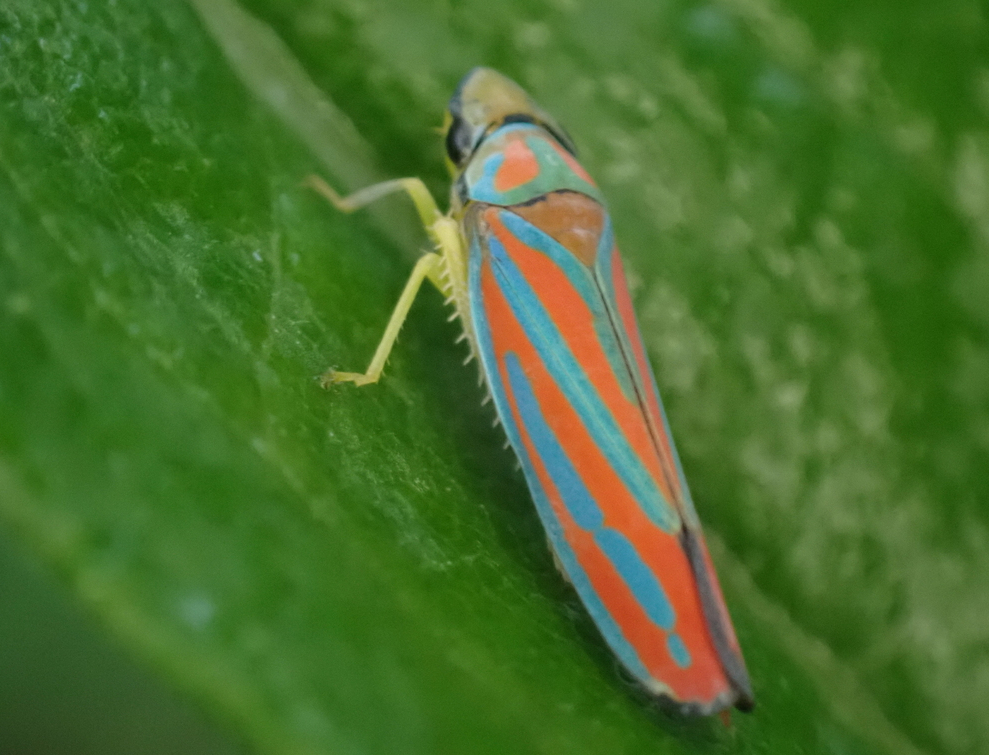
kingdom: Animalia
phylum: Arthropoda
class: Insecta
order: Hemiptera
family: Cicadellidae
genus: Graphocephala
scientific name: Graphocephala coccinea
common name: Candy-striped leafhopper
